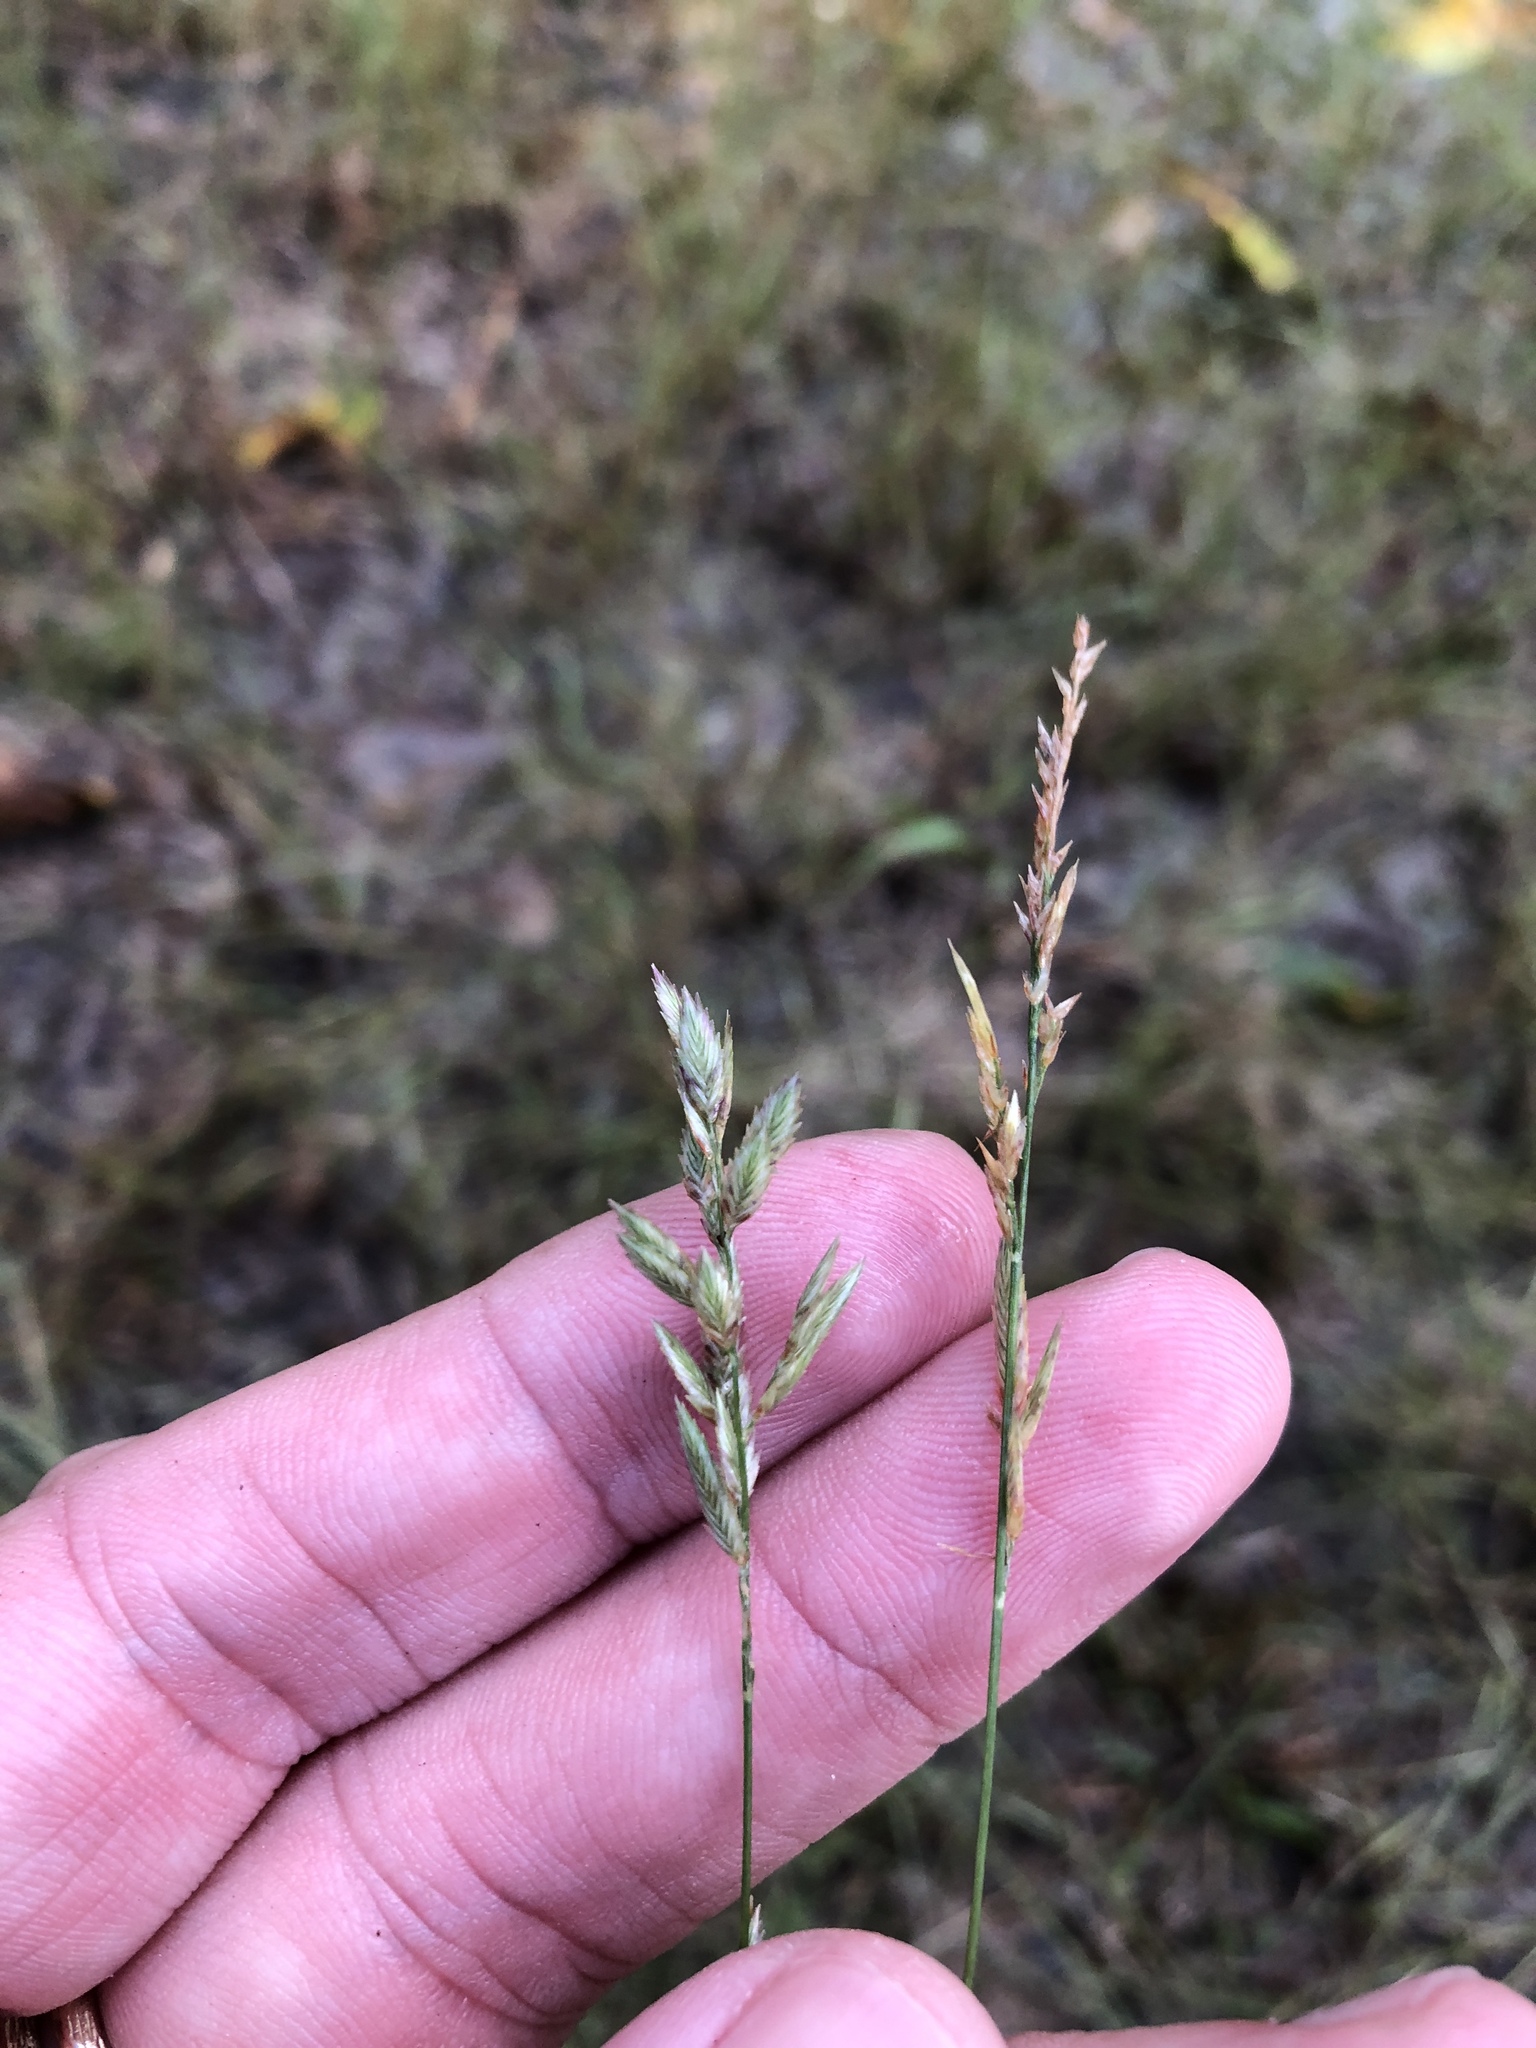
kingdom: Plantae
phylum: Tracheophyta
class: Liliopsida
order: Poales
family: Poaceae
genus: Eragrostis
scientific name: Eragrostis secundiflora
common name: Red love grass
